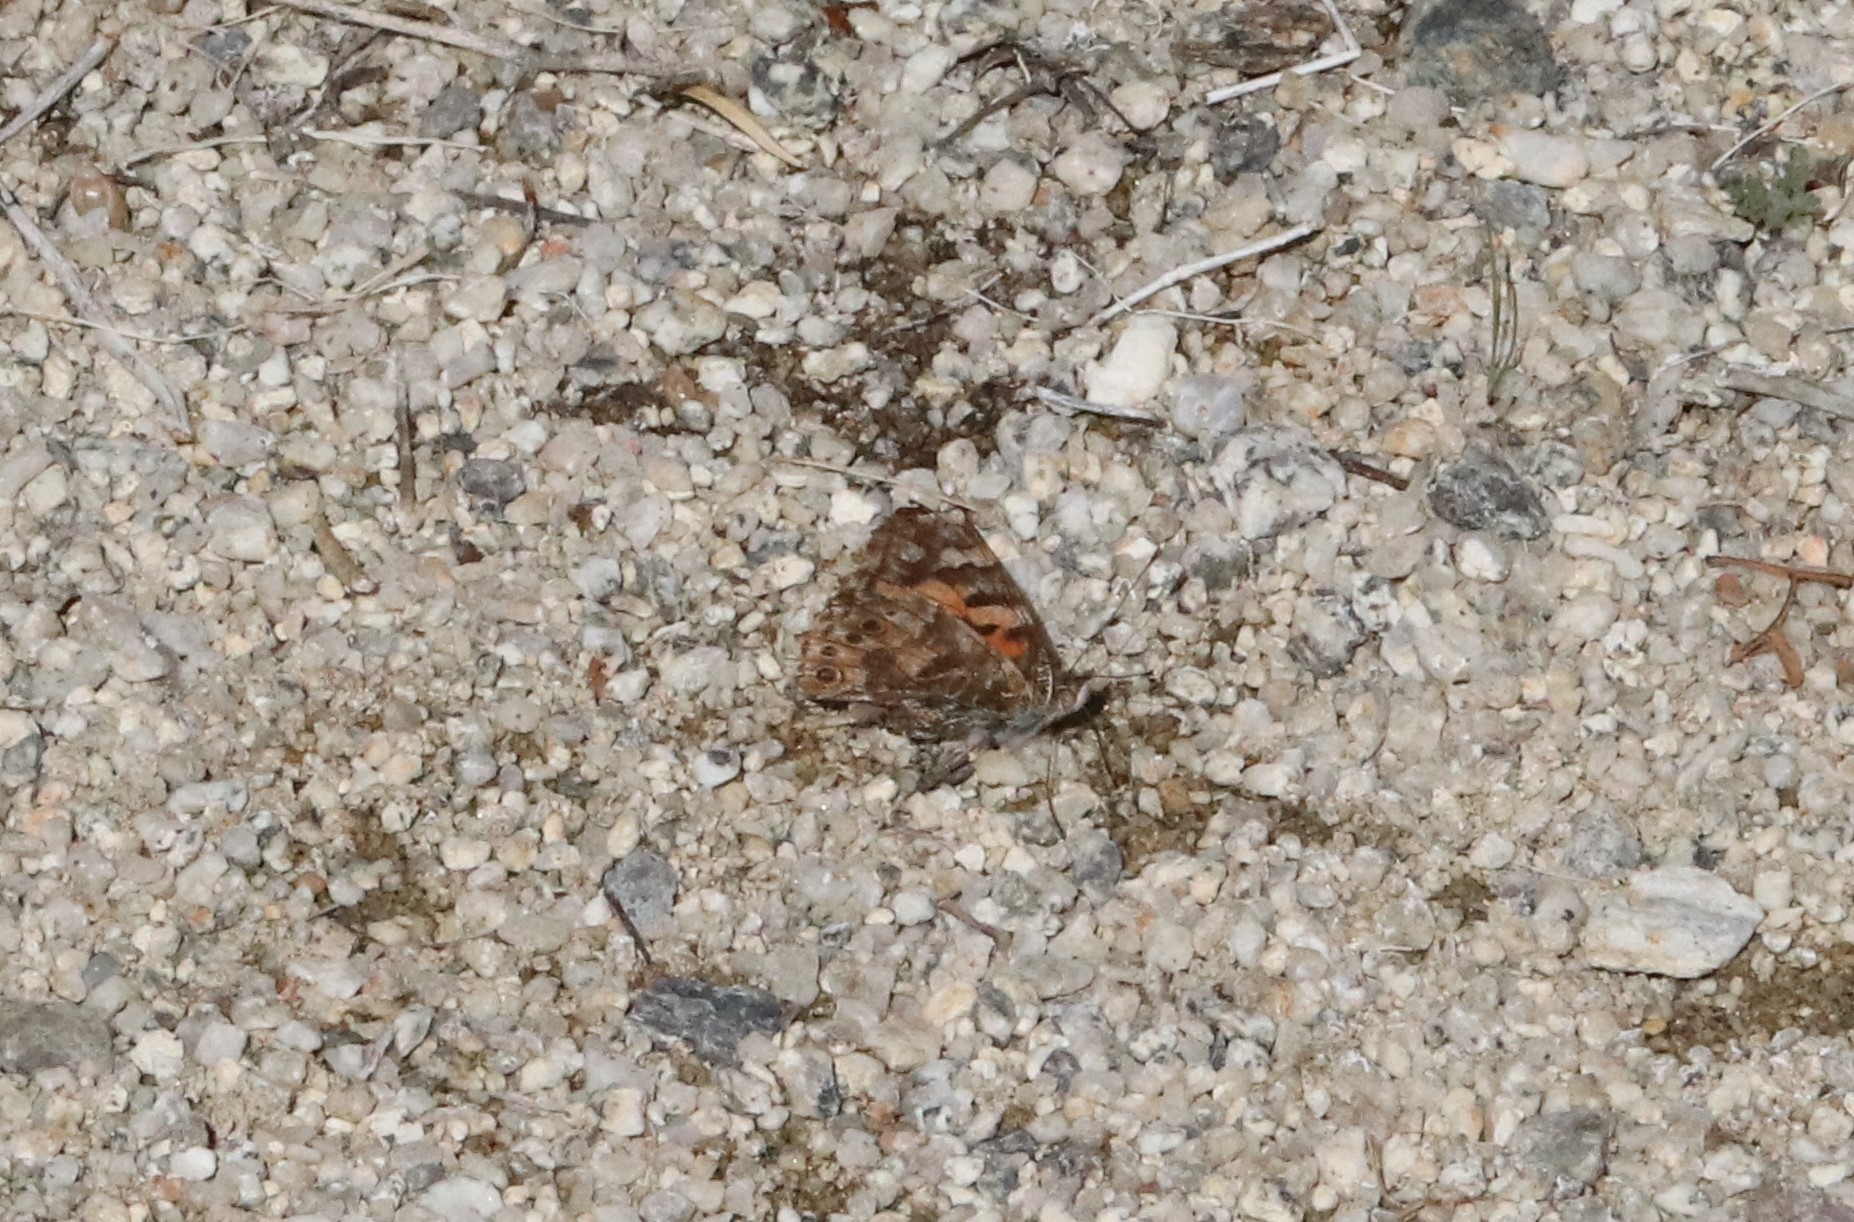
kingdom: Animalia
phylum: Arthropoda
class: Insecta
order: Lepidoptera
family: Nymphalidae
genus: Vanessa
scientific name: Vanessa cardui
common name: Painted lady
